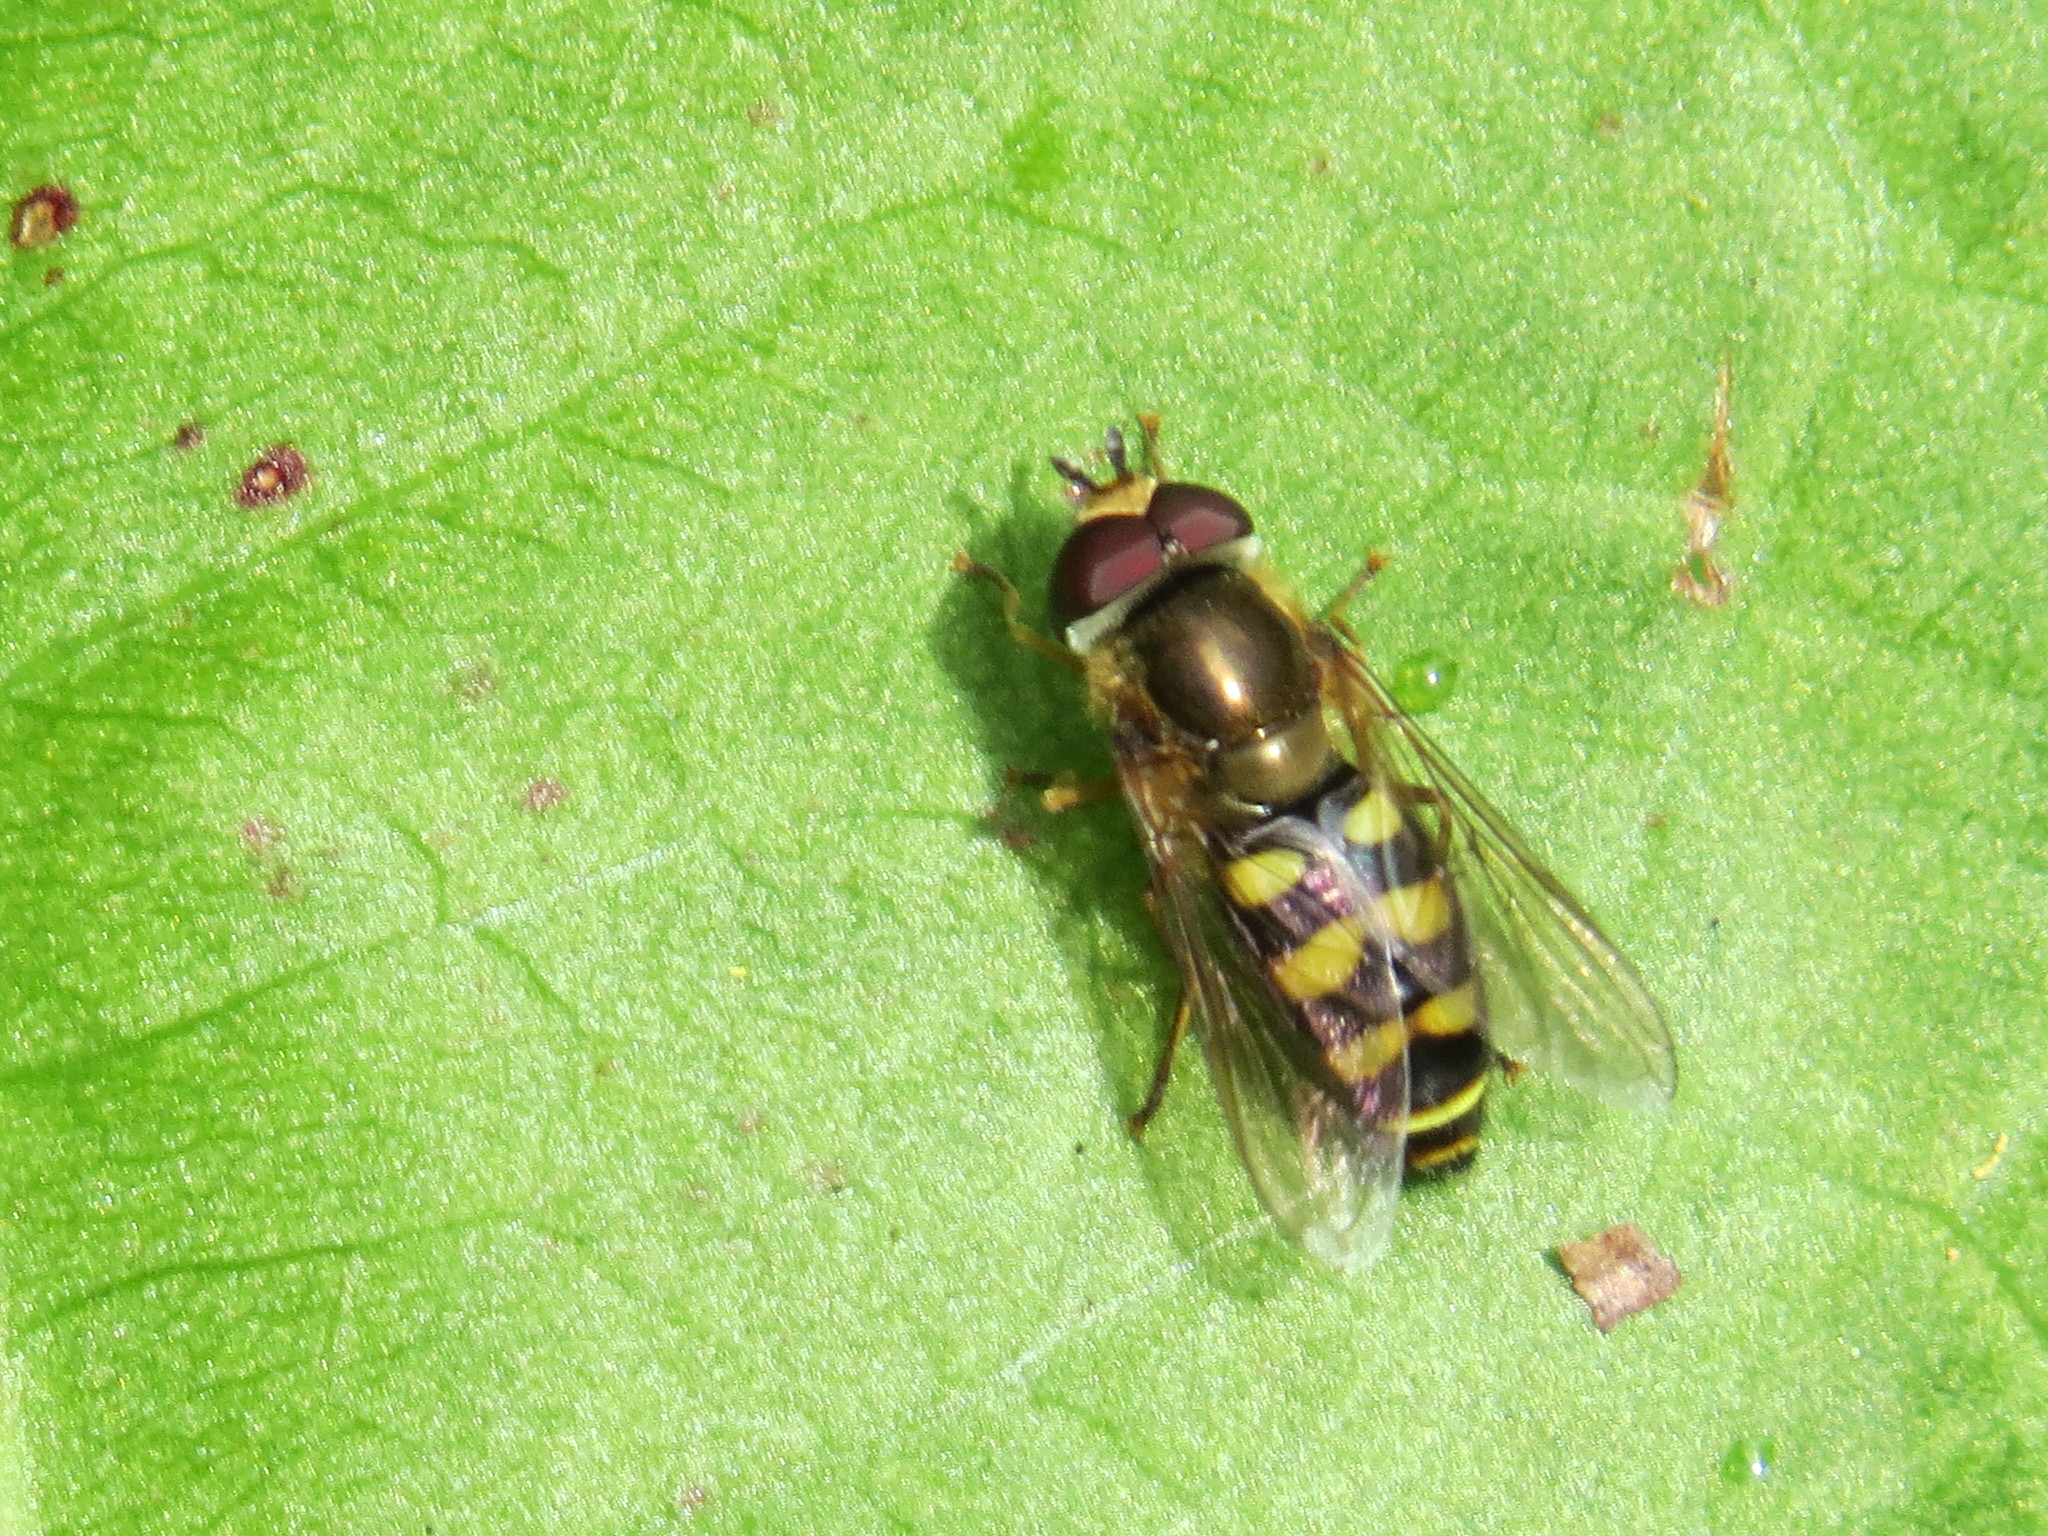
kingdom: Animalia
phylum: Arthropoda
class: Insecta
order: Diptera
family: Syrphidae
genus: Eupeodes
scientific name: Eupeodes fumipennis
